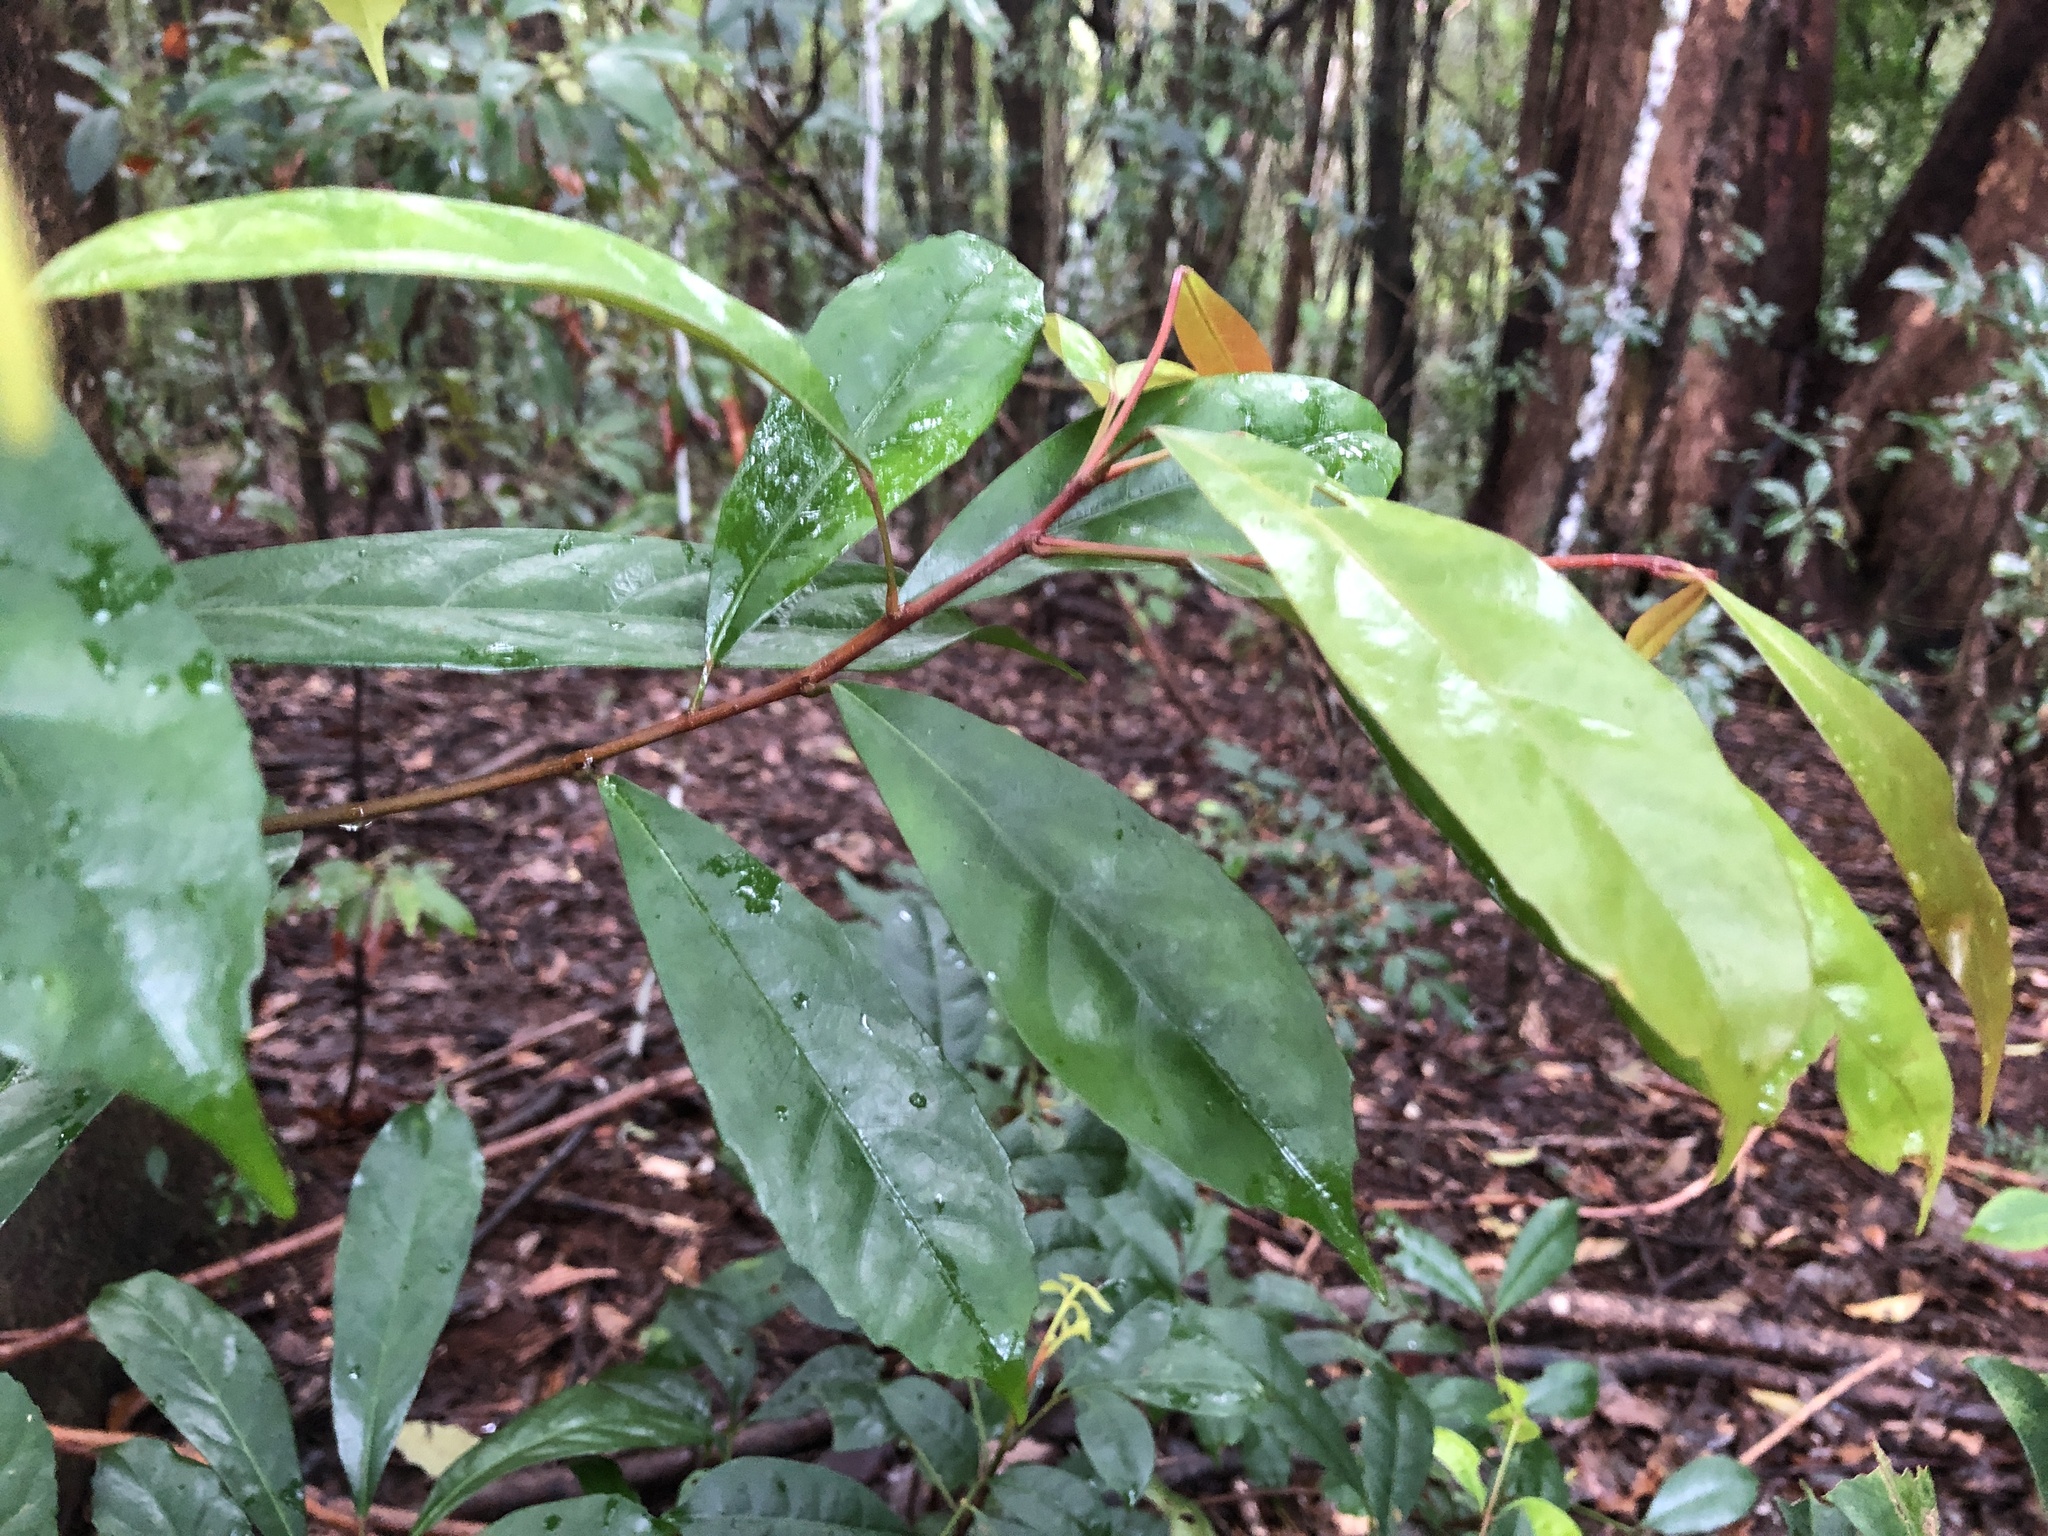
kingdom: Plantae
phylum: Tracheophyta
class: Magnoliopsida
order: Oxalidales
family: Elaeocarpaceae
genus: Elaeocarpus
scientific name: Elaeocarpus eumundi
